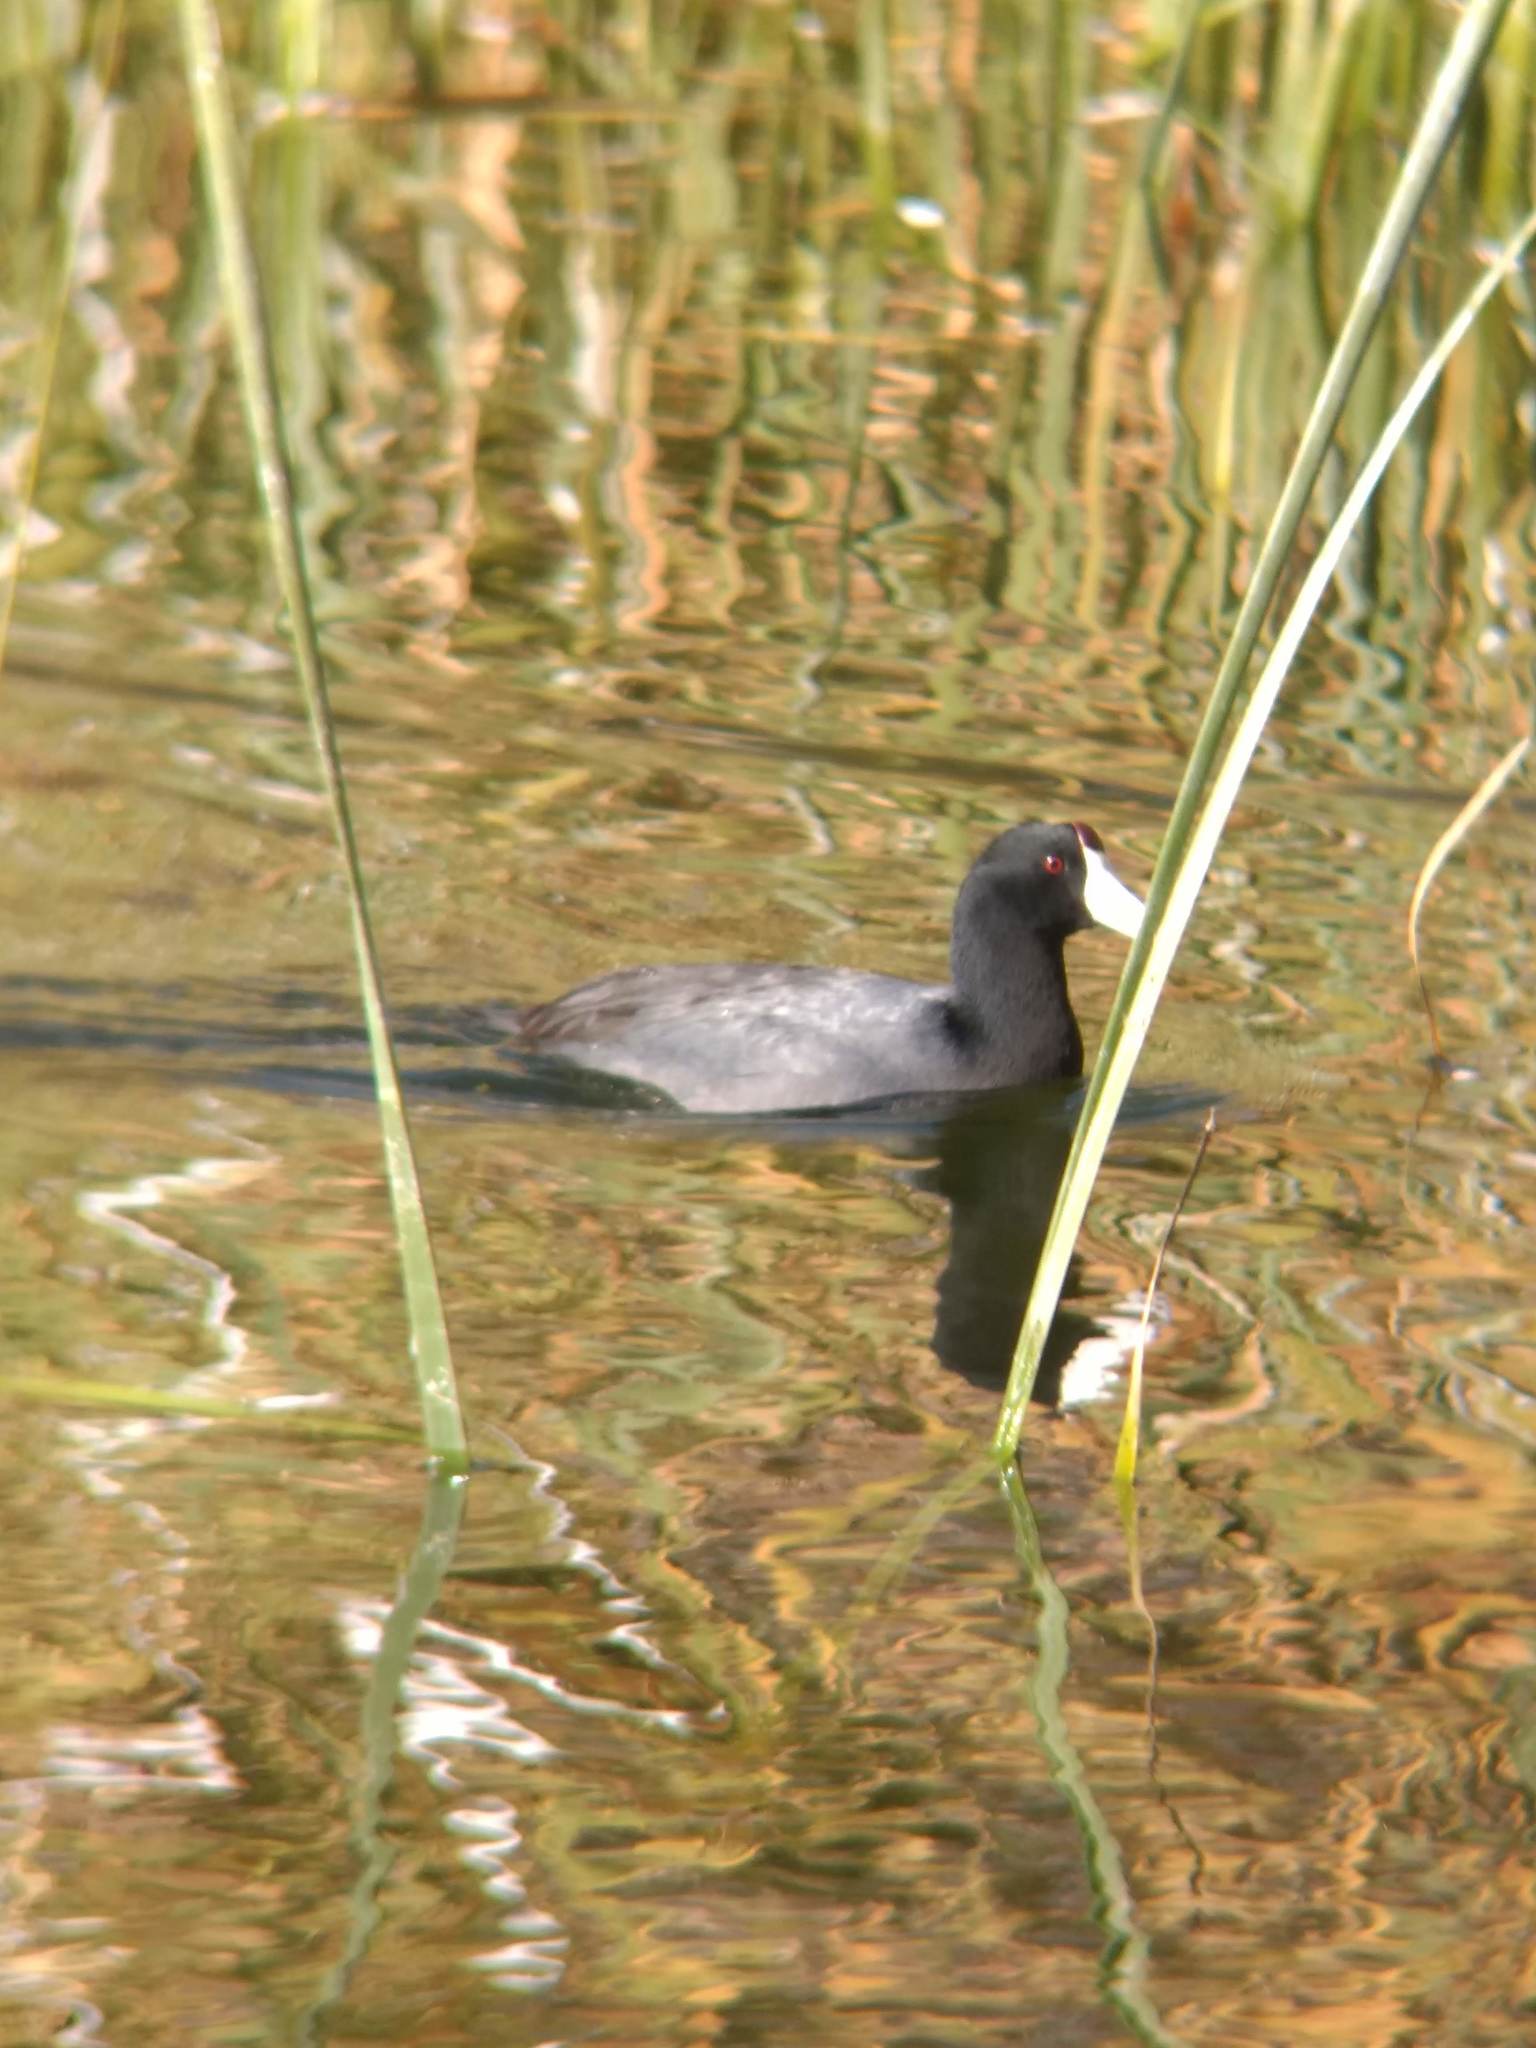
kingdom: Animalia
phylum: Chordata
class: Aves
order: Gruiformes
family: Rallidae
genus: Fulica
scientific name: Fulica americana
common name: American coot
